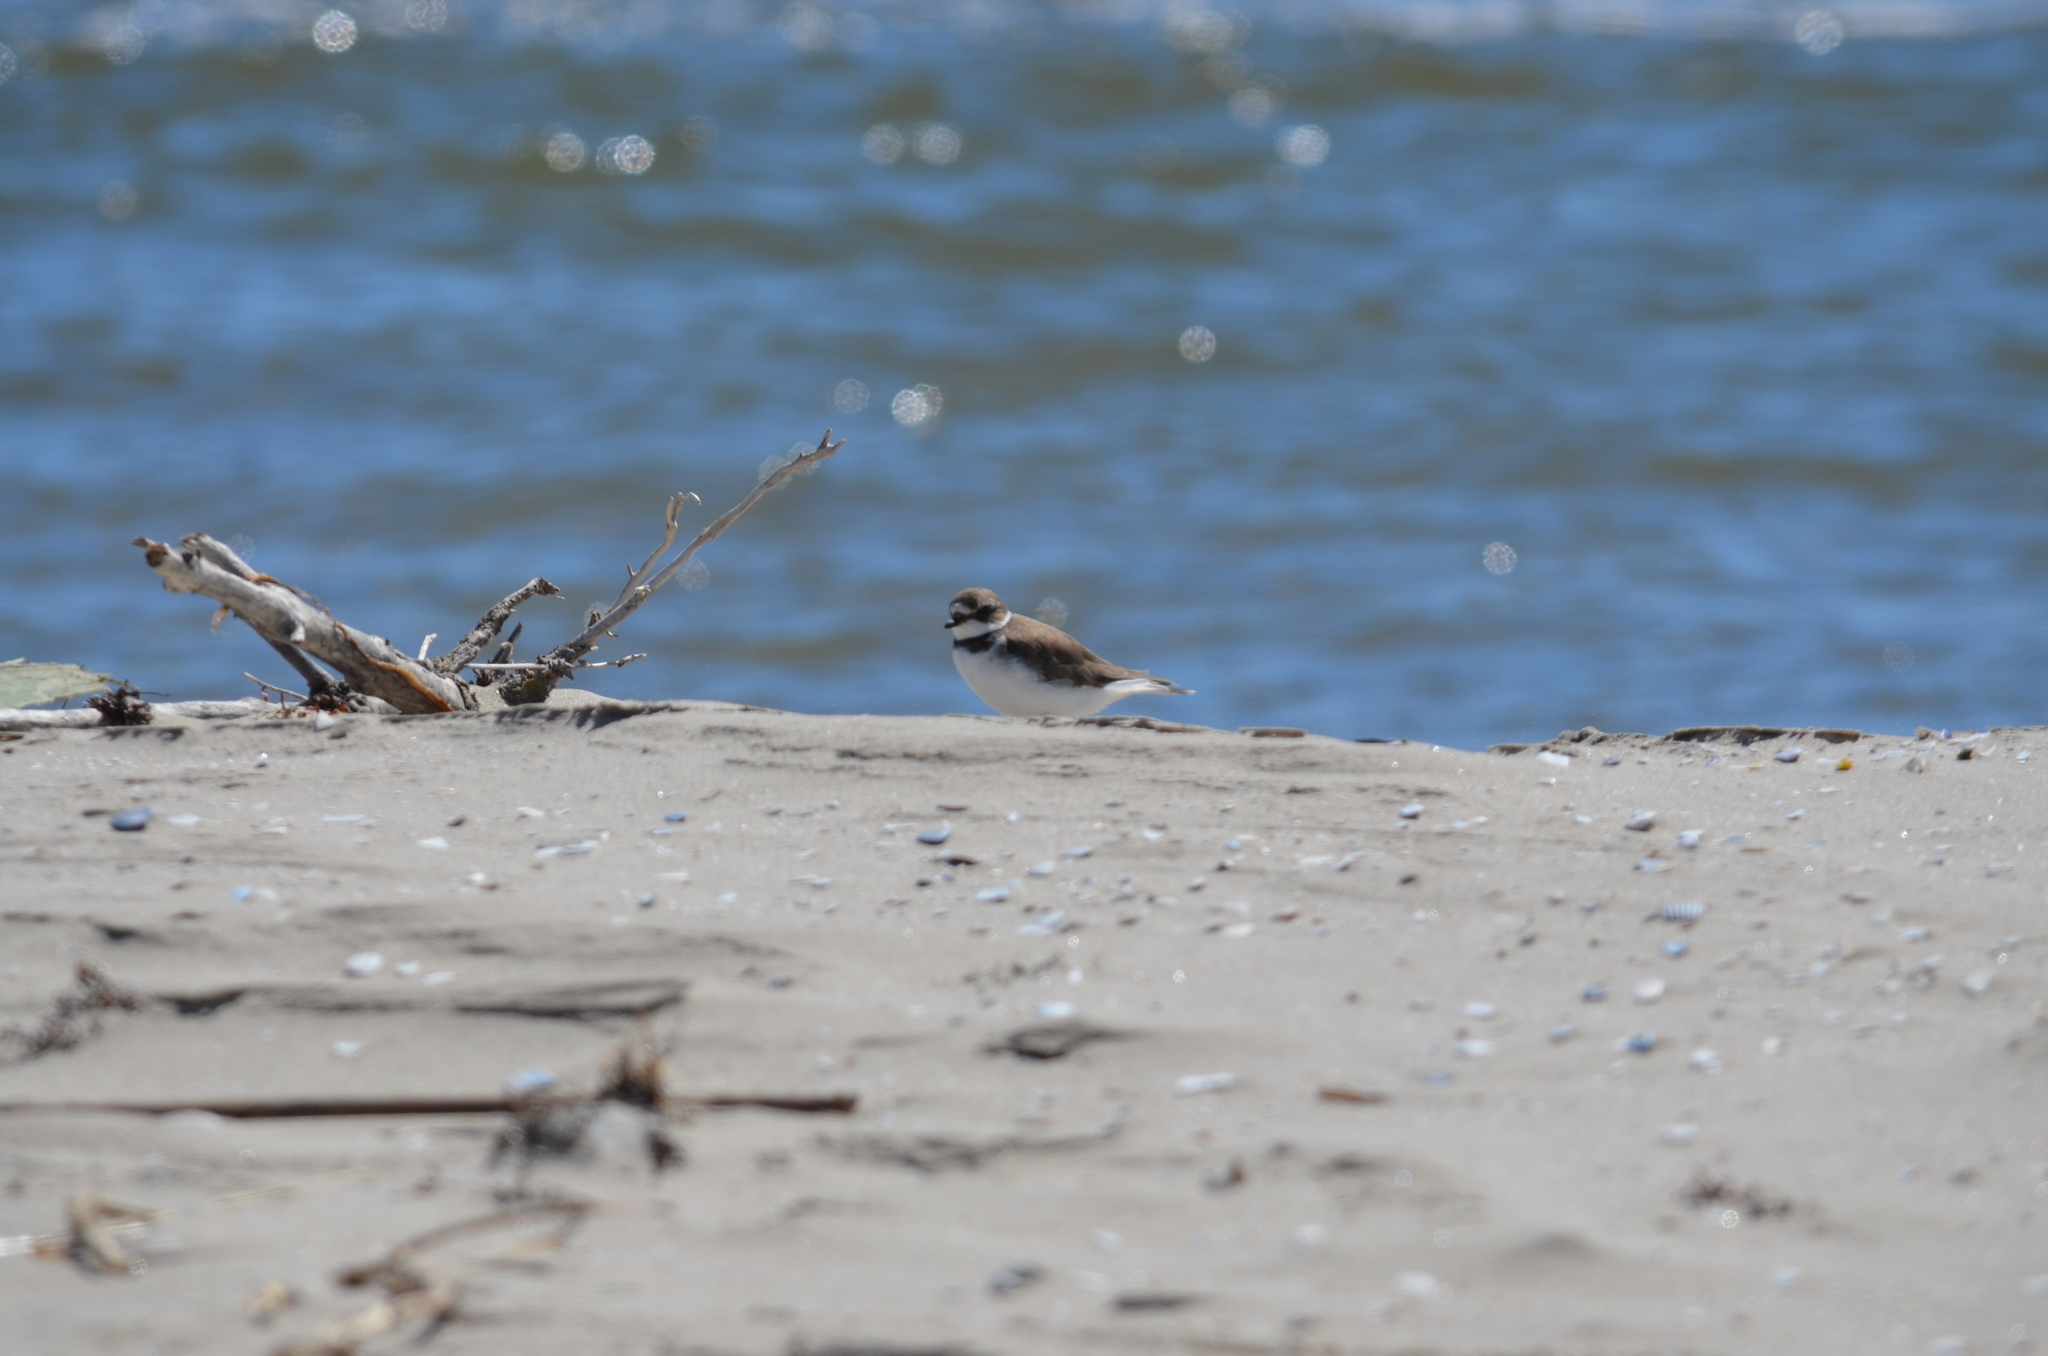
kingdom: Animalia
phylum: Chordata
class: Aves
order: Charadriiformes
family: Charadriidae
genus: Charadrius
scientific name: Charadrius semipalmatus
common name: Semipalmated plover
